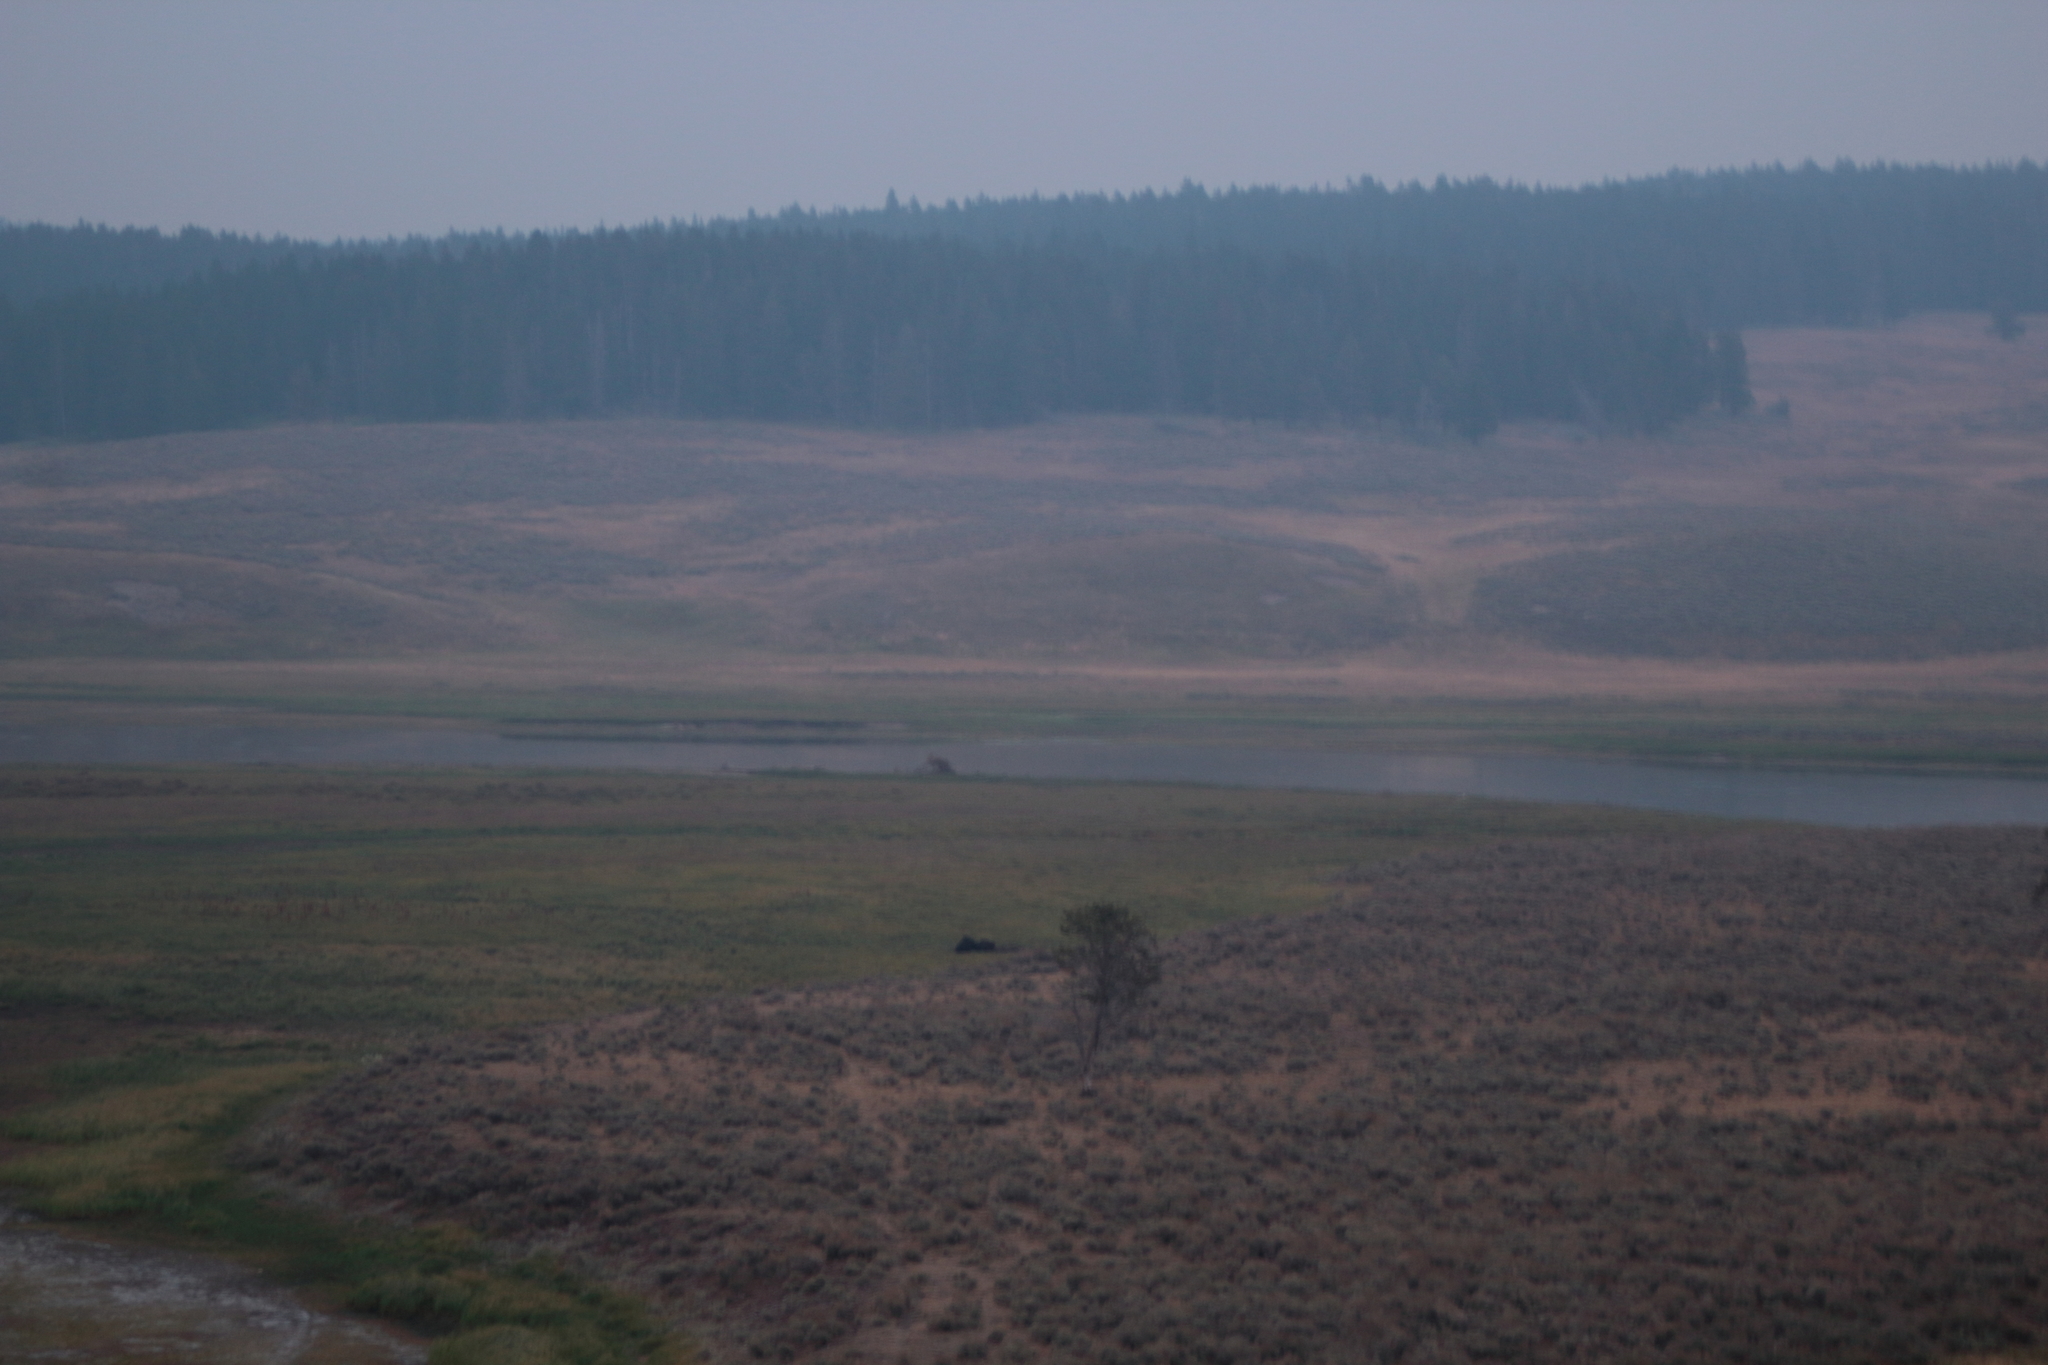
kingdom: Animalia
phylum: Chordata
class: Mammalia
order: Carnivora
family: Ursidae
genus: Ursus
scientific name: Ursus arctos
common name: Brown bear
